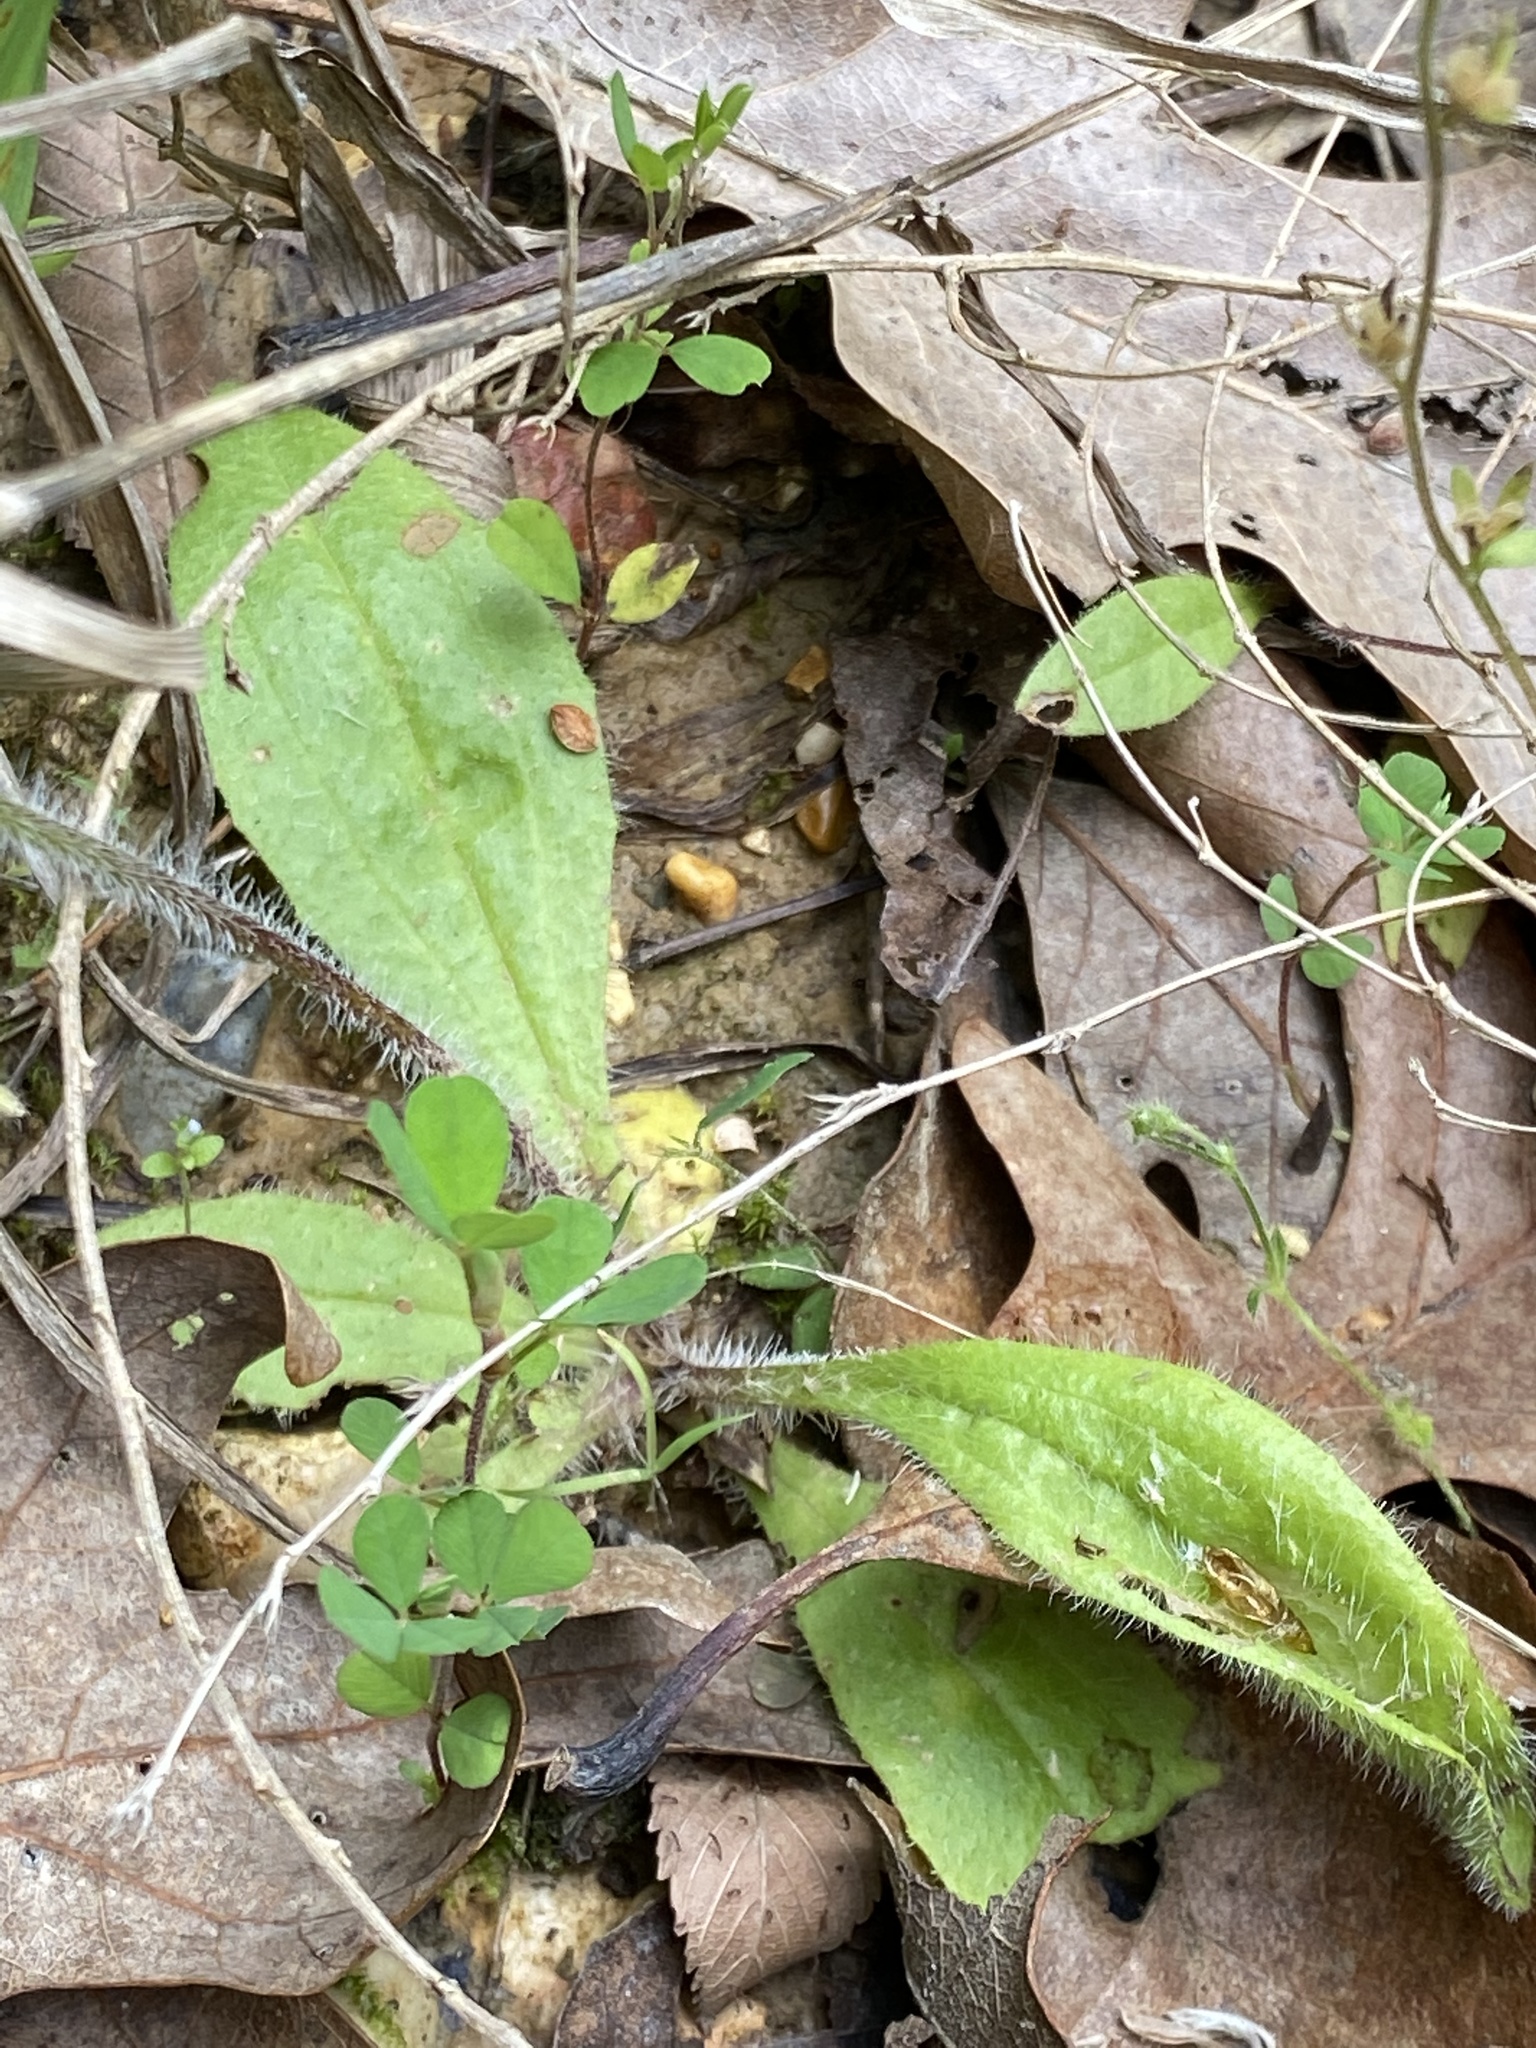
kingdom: Plantae
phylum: Tracheophyta
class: Magnoliopsida
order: Lamiales
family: Plantaginaceae
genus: Plantago
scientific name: Plantago virginica
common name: Hoary plantain
